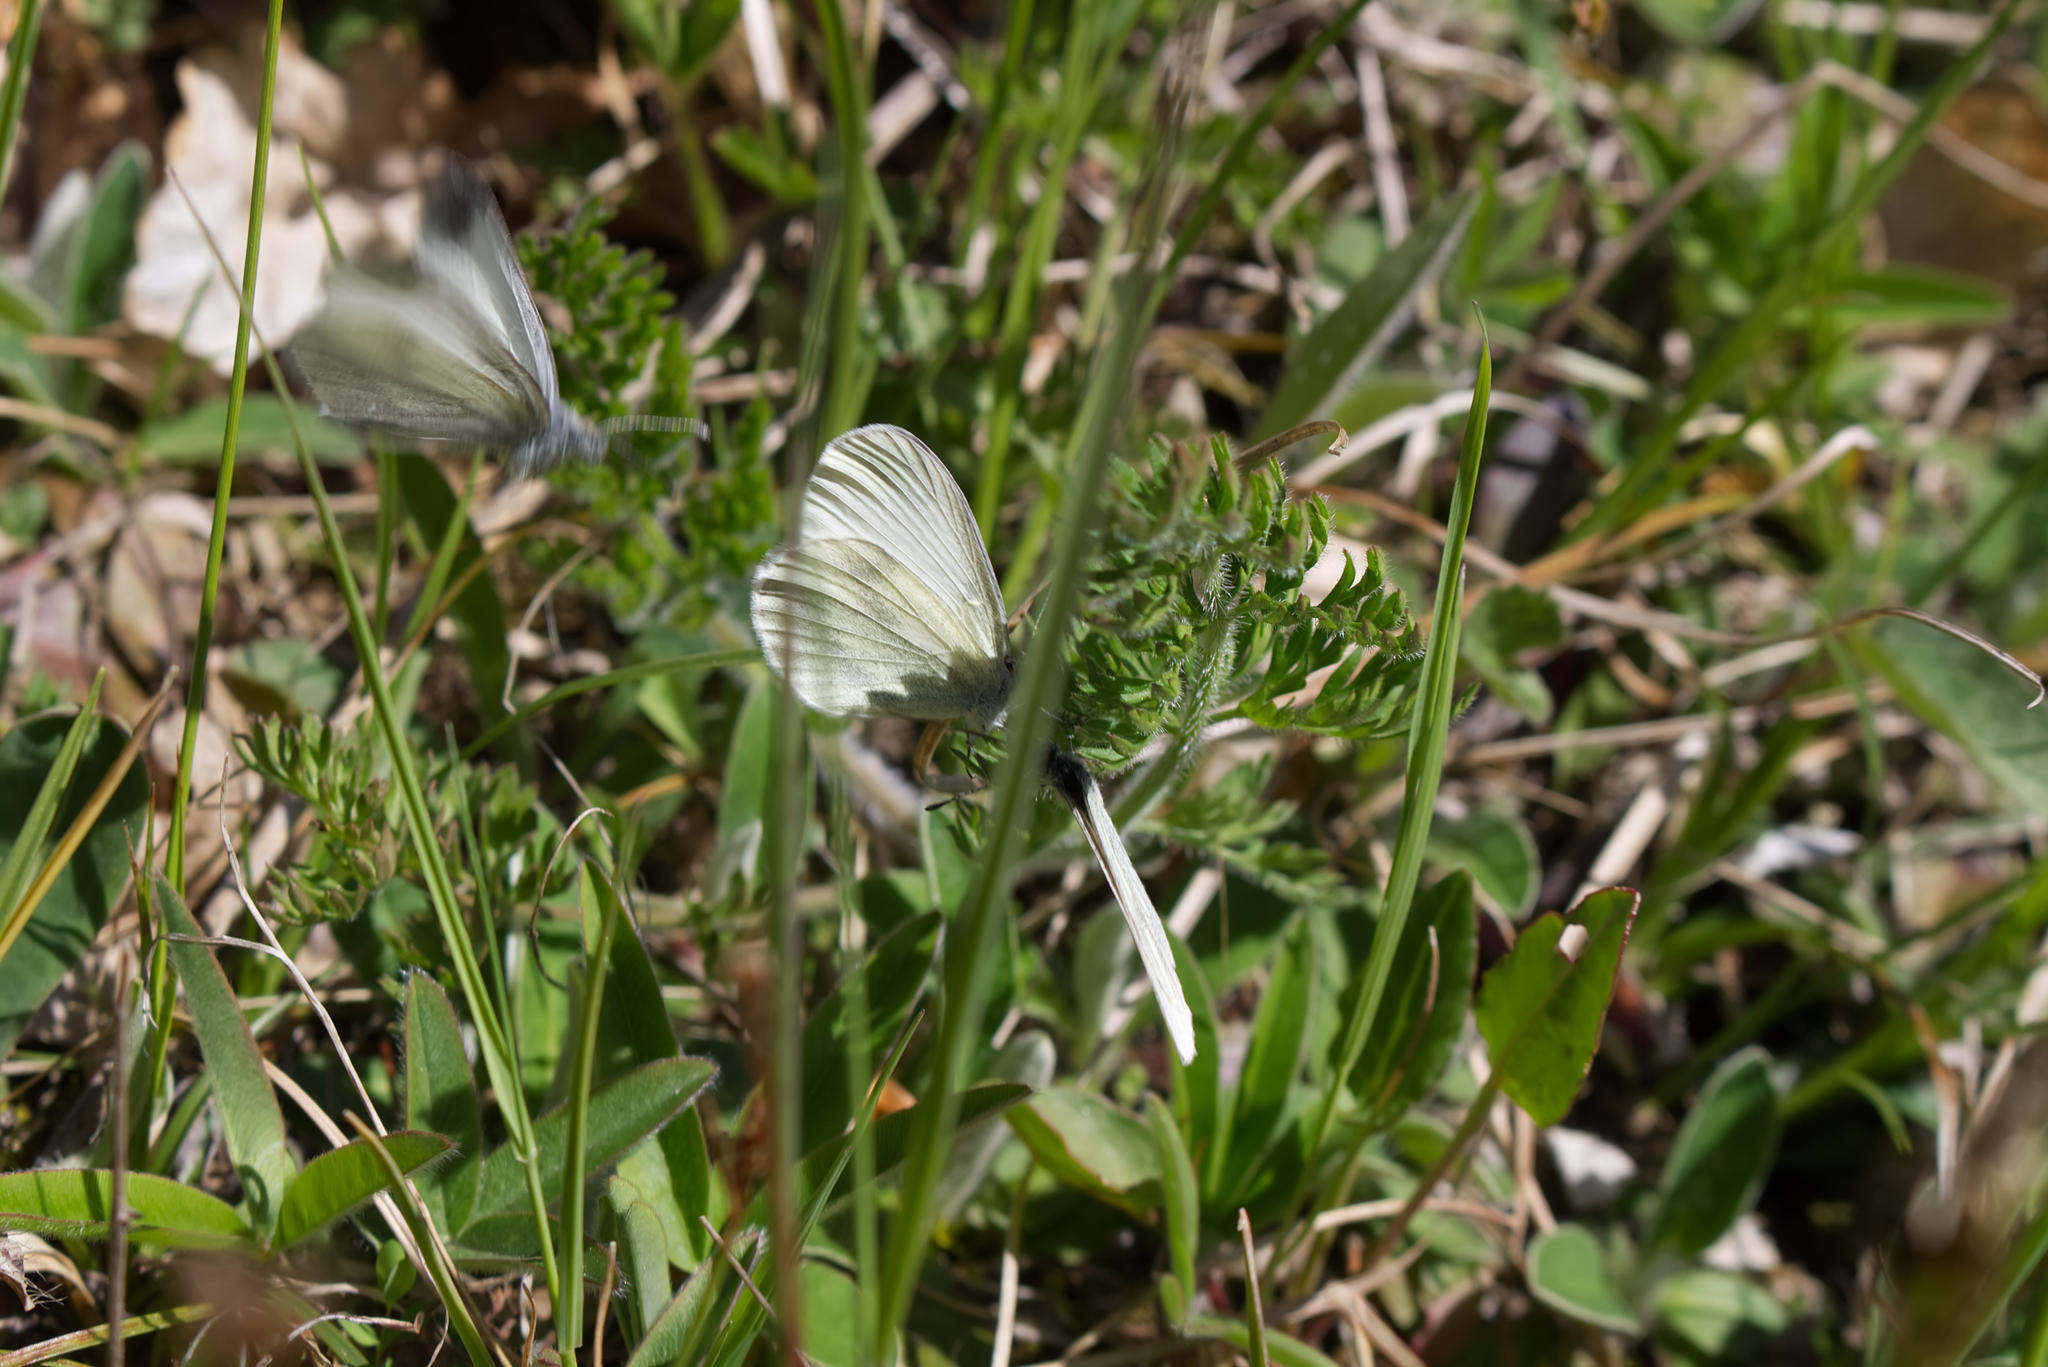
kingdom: Animalia
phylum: Arthropoda
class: Insecta
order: Lepidoptera
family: Pieridae
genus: Leptidea
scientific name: Leptidea
